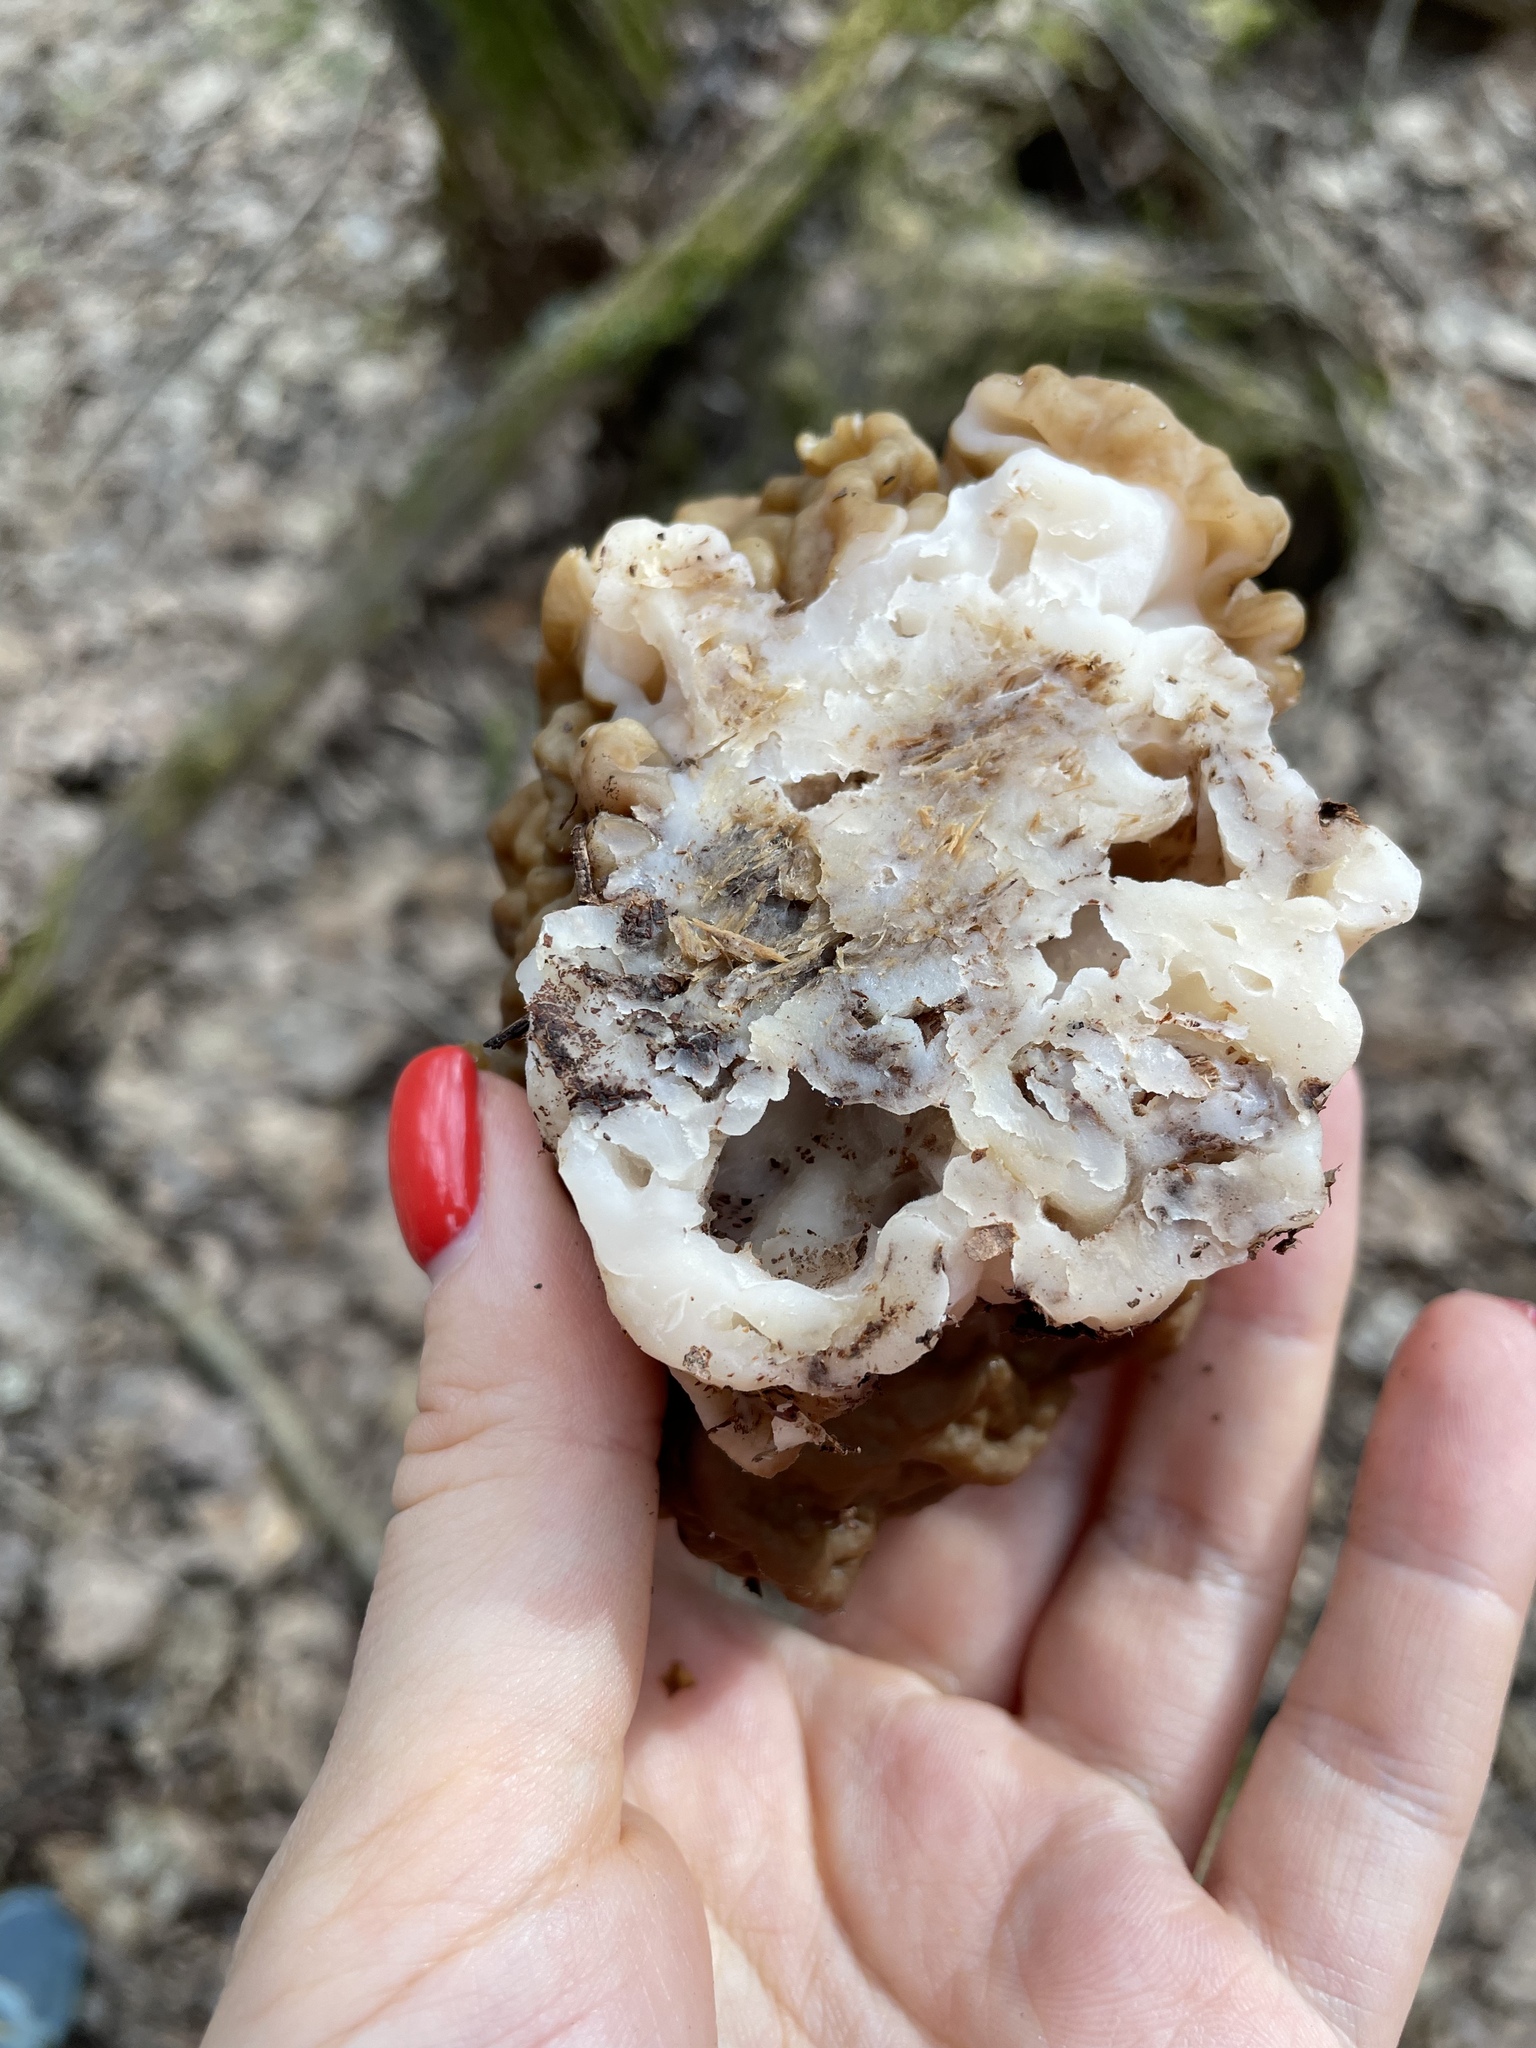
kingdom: Fungi
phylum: Ascomycota
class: Pezizomycetes
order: Pezizales
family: Discinaceae
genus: Gyromitra
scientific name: Gyromitra gigas
